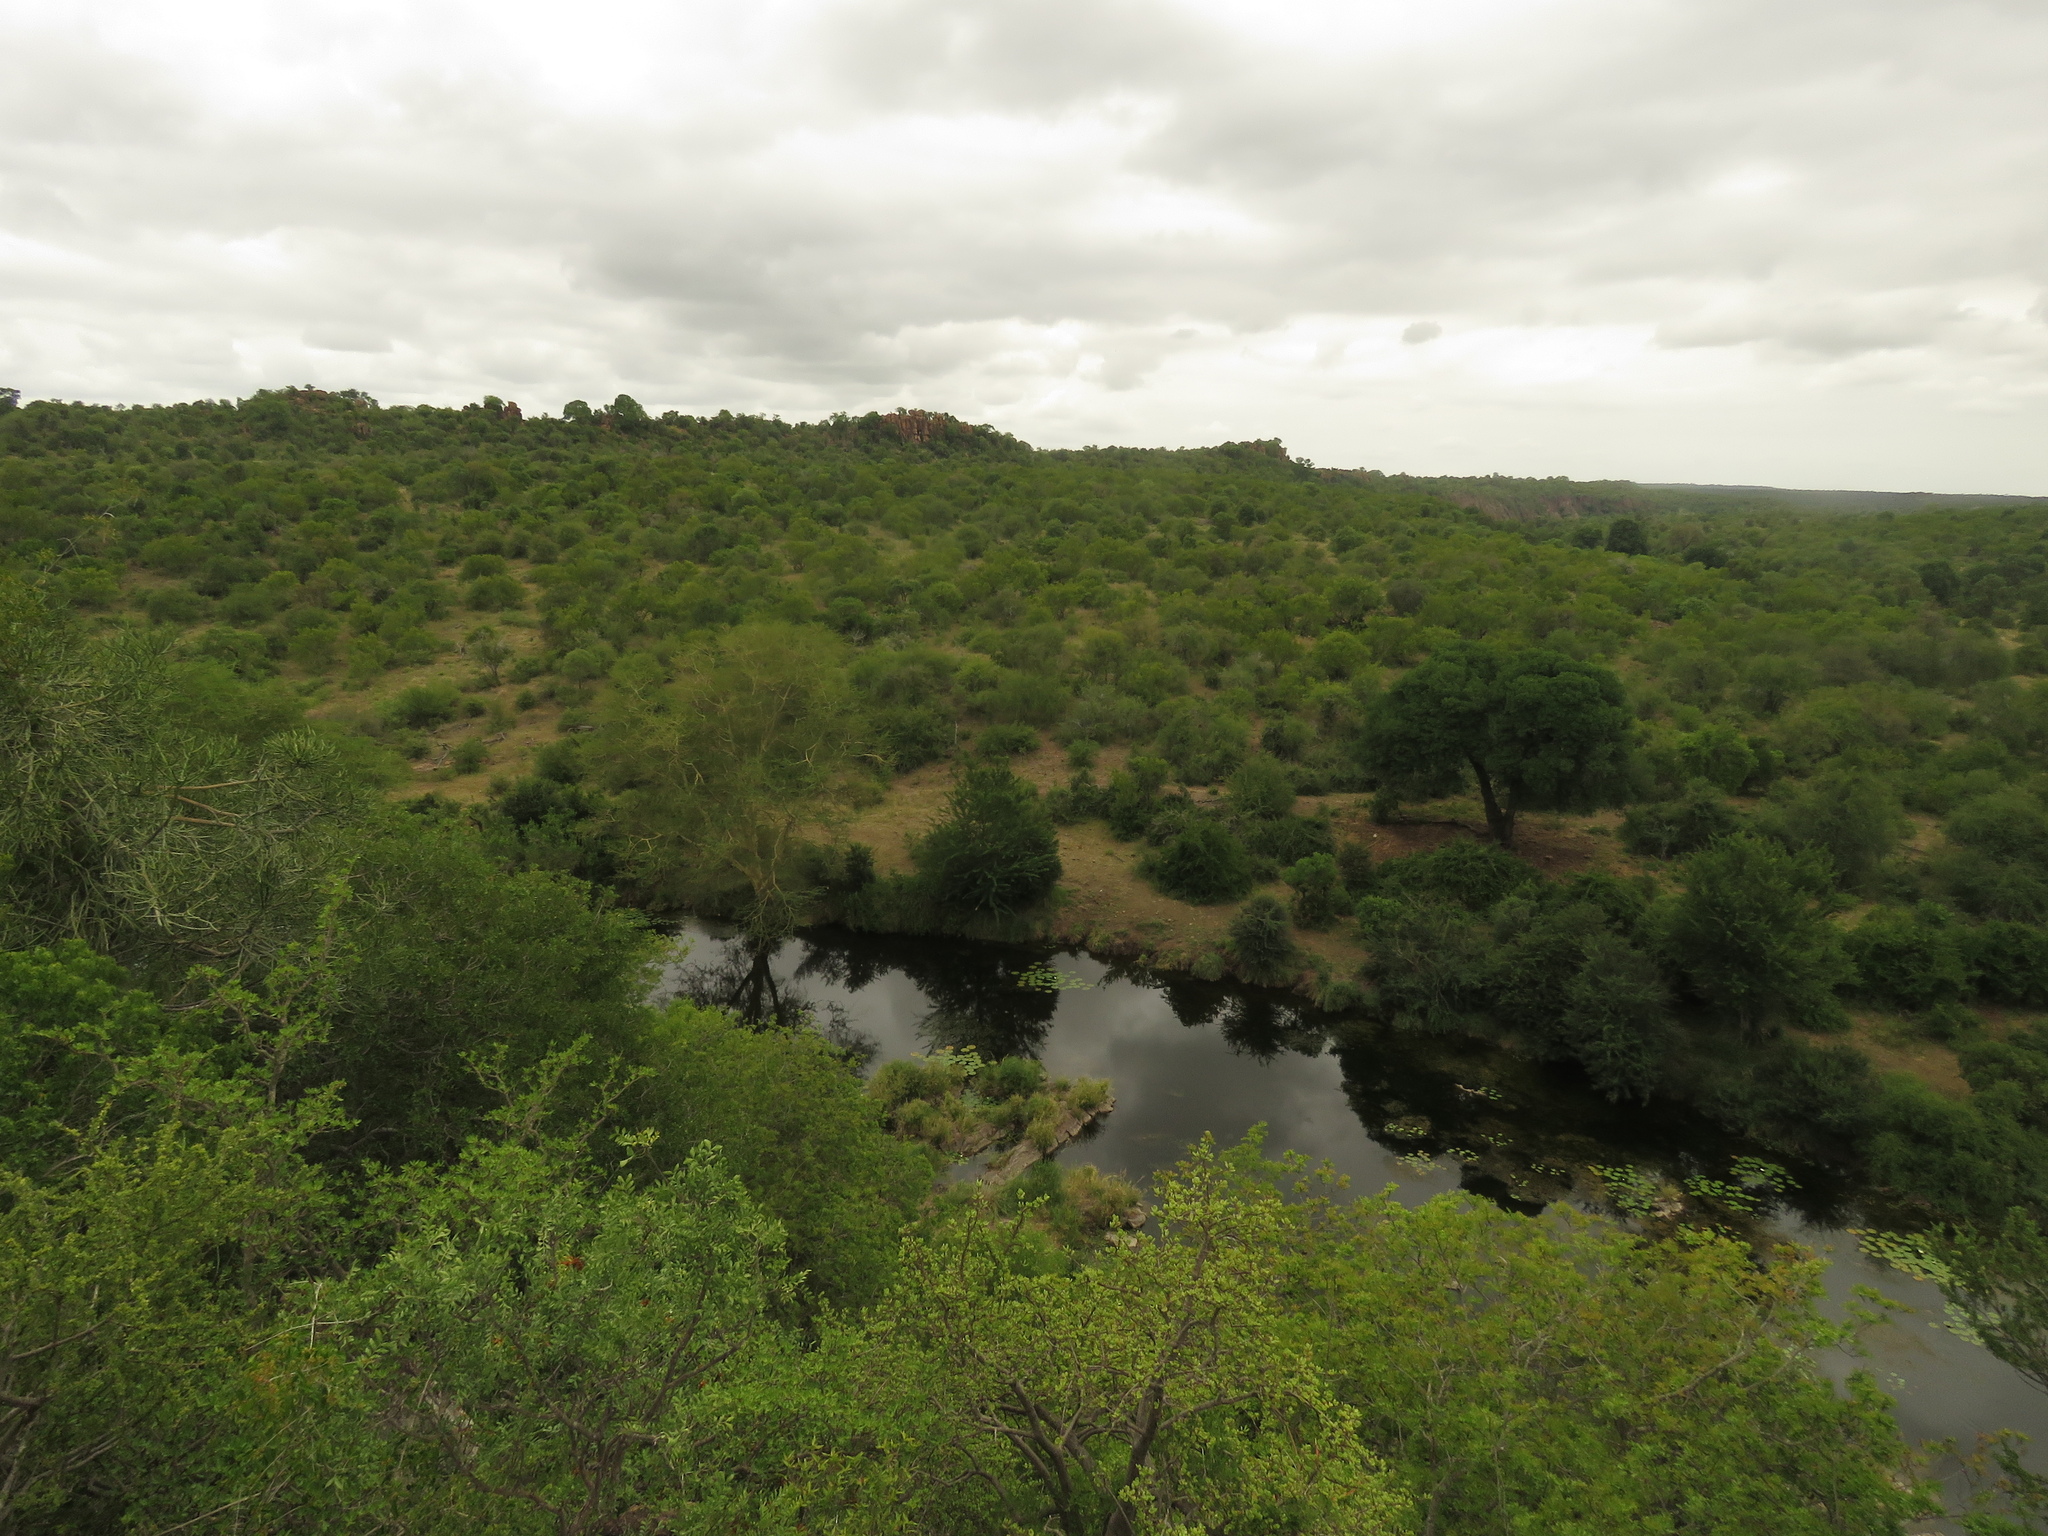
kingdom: Plantae
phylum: Tracheophyta
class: Magnoliopsida
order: Fabales
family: Fabaceae
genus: Vachellia
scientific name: Vachellia xanthophloea
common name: Fever tree
